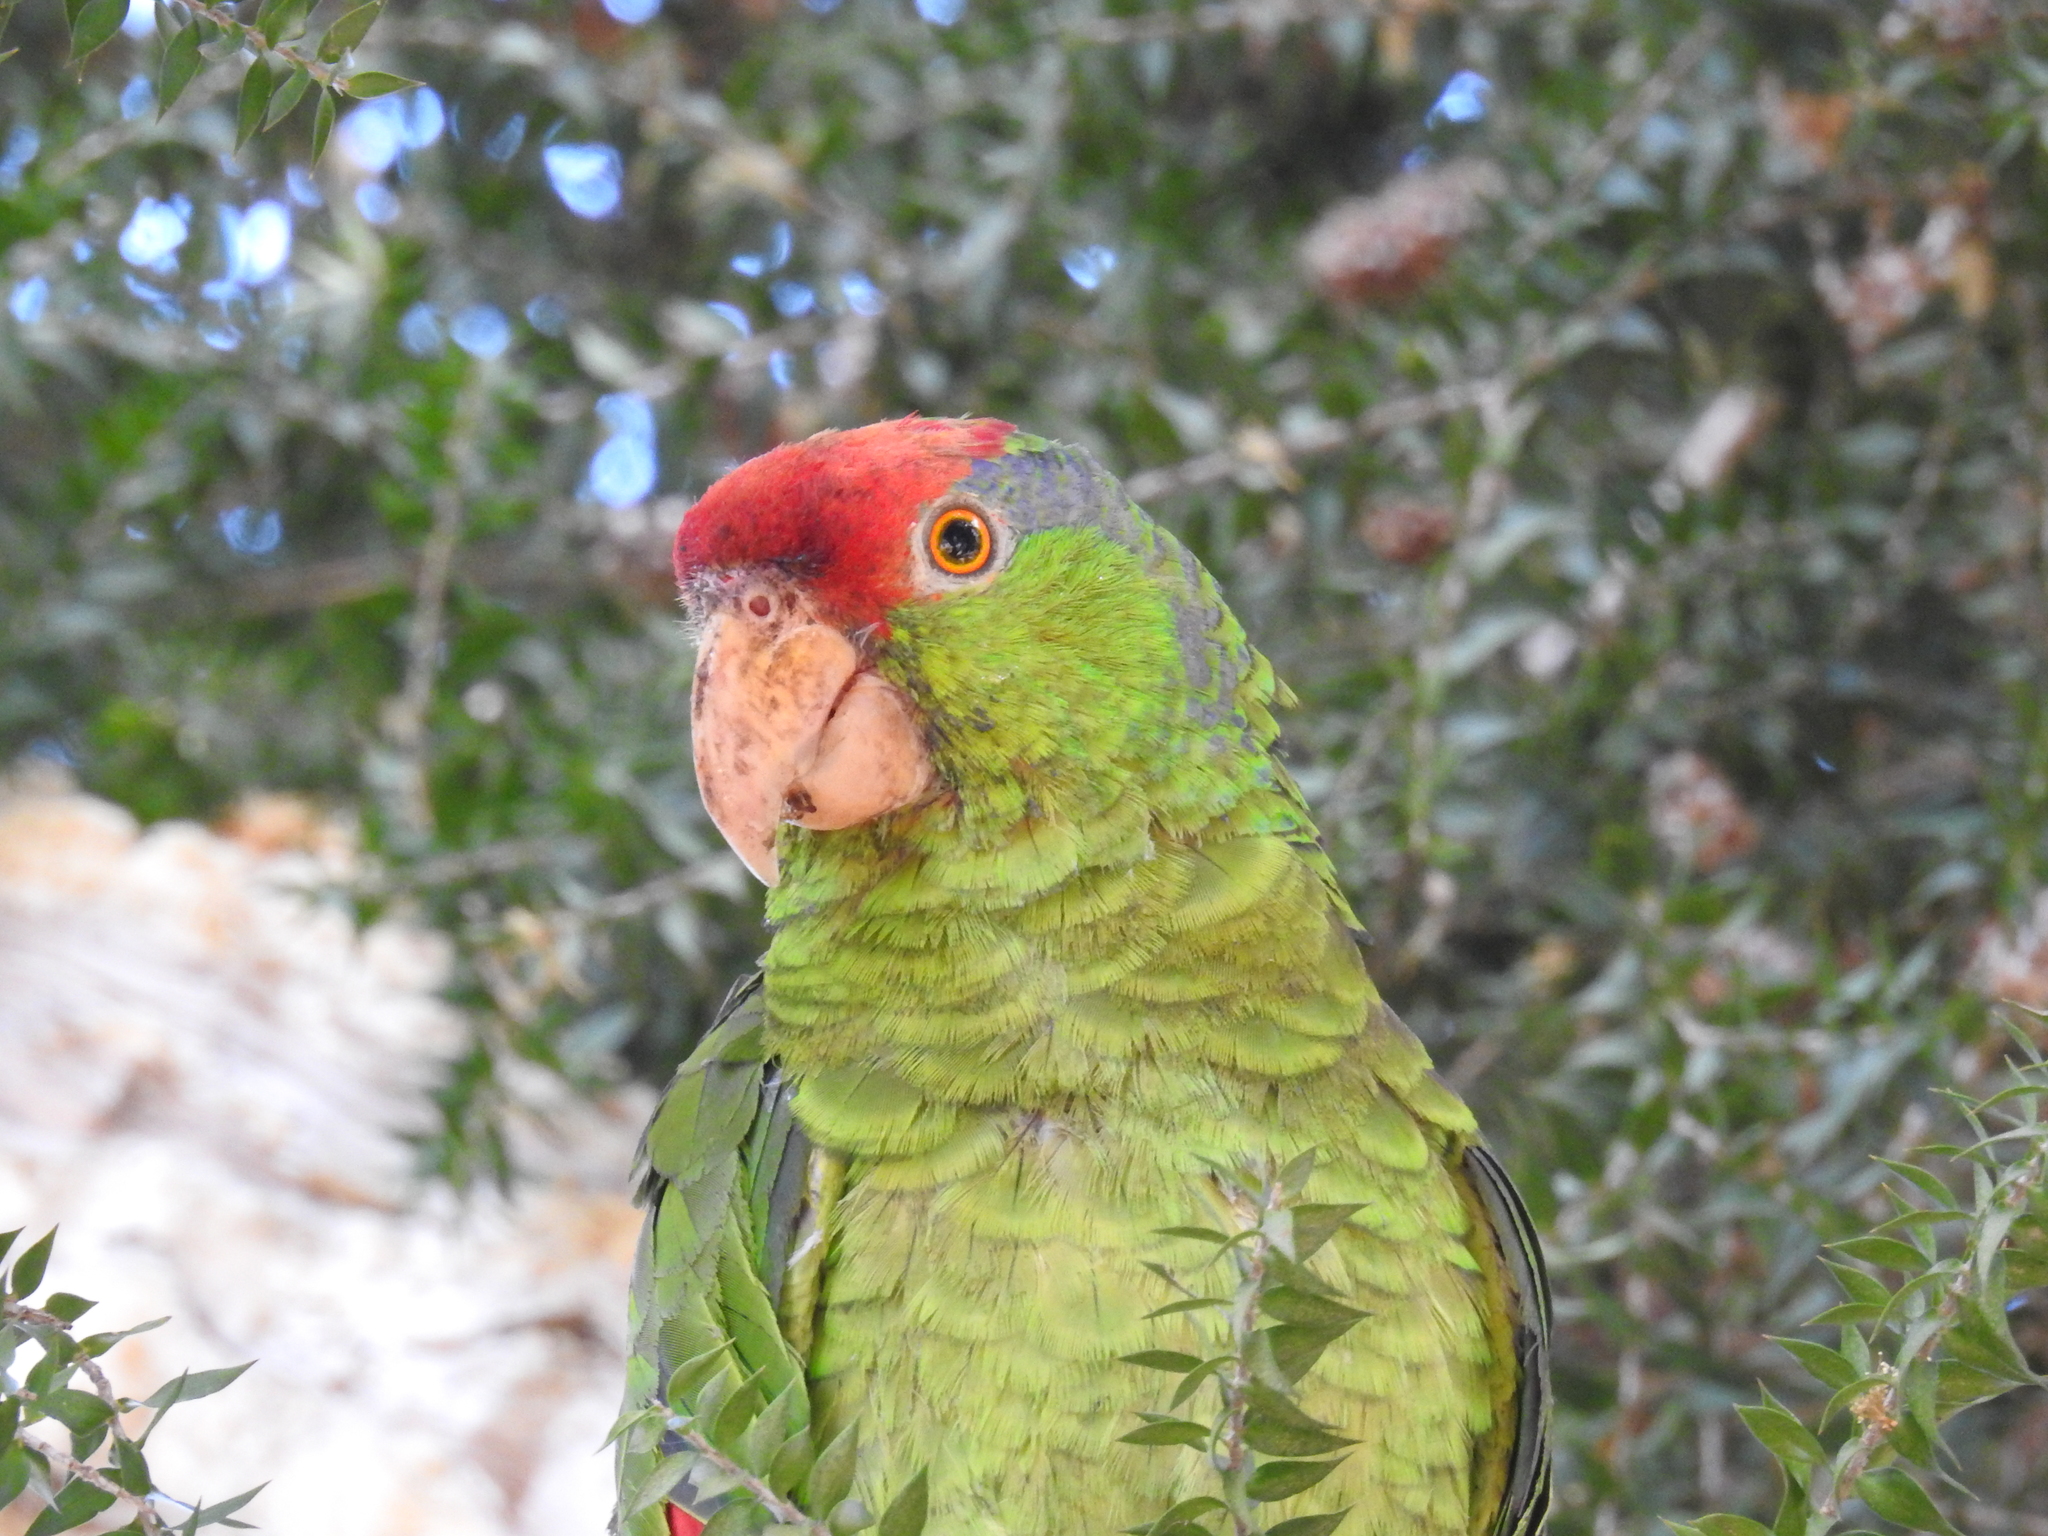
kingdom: Animalia
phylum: Chordata
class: Aves
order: Psittaciformes
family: Psittacidae
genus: Amazona
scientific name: Amazona viridigenalis
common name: Red-crowned amazon
